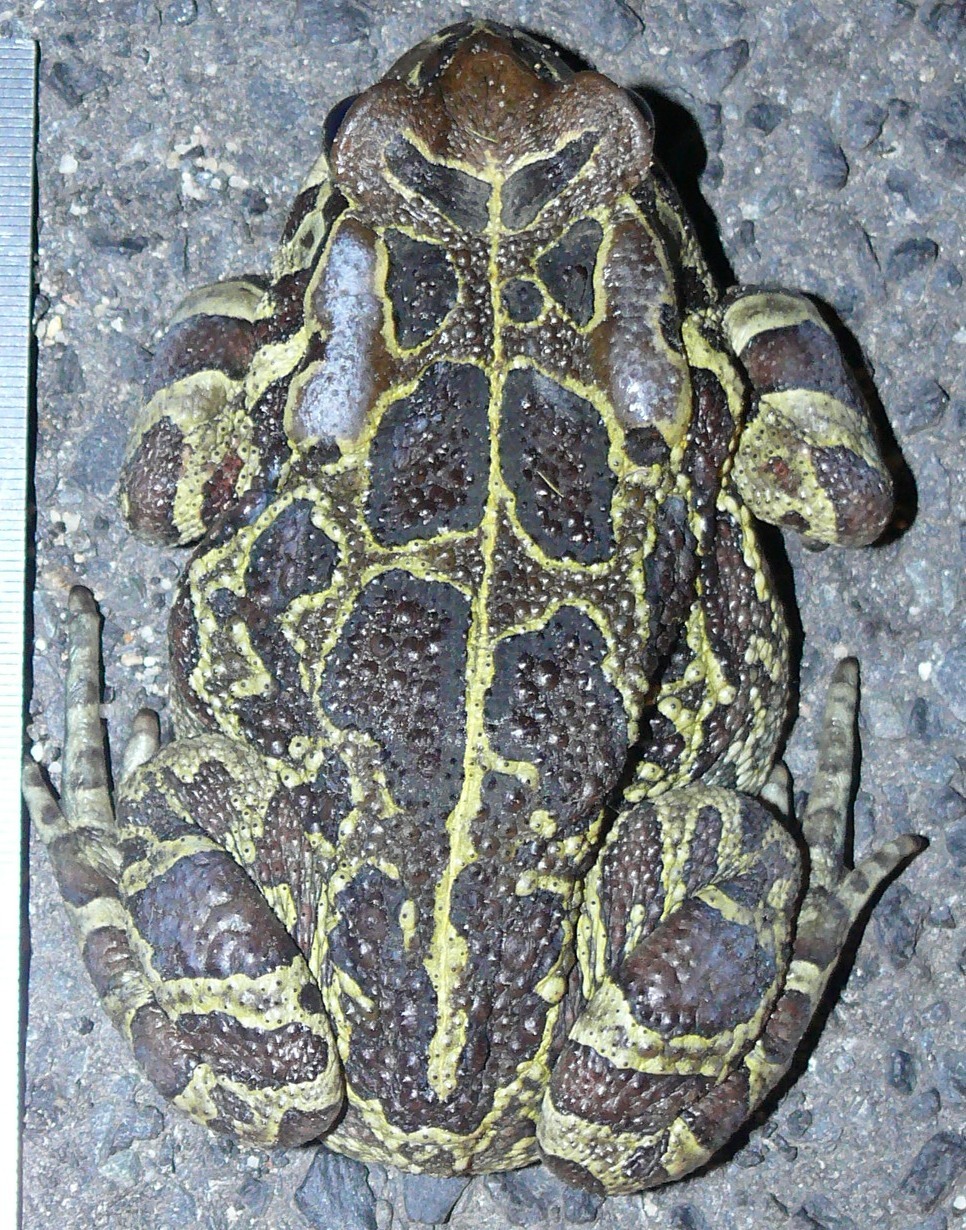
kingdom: Animalia
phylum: Chordata
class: Amphibia
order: Anura
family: Bufonidae
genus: Sclerophrys
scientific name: Sclerophrys pantherina
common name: Panther toad
